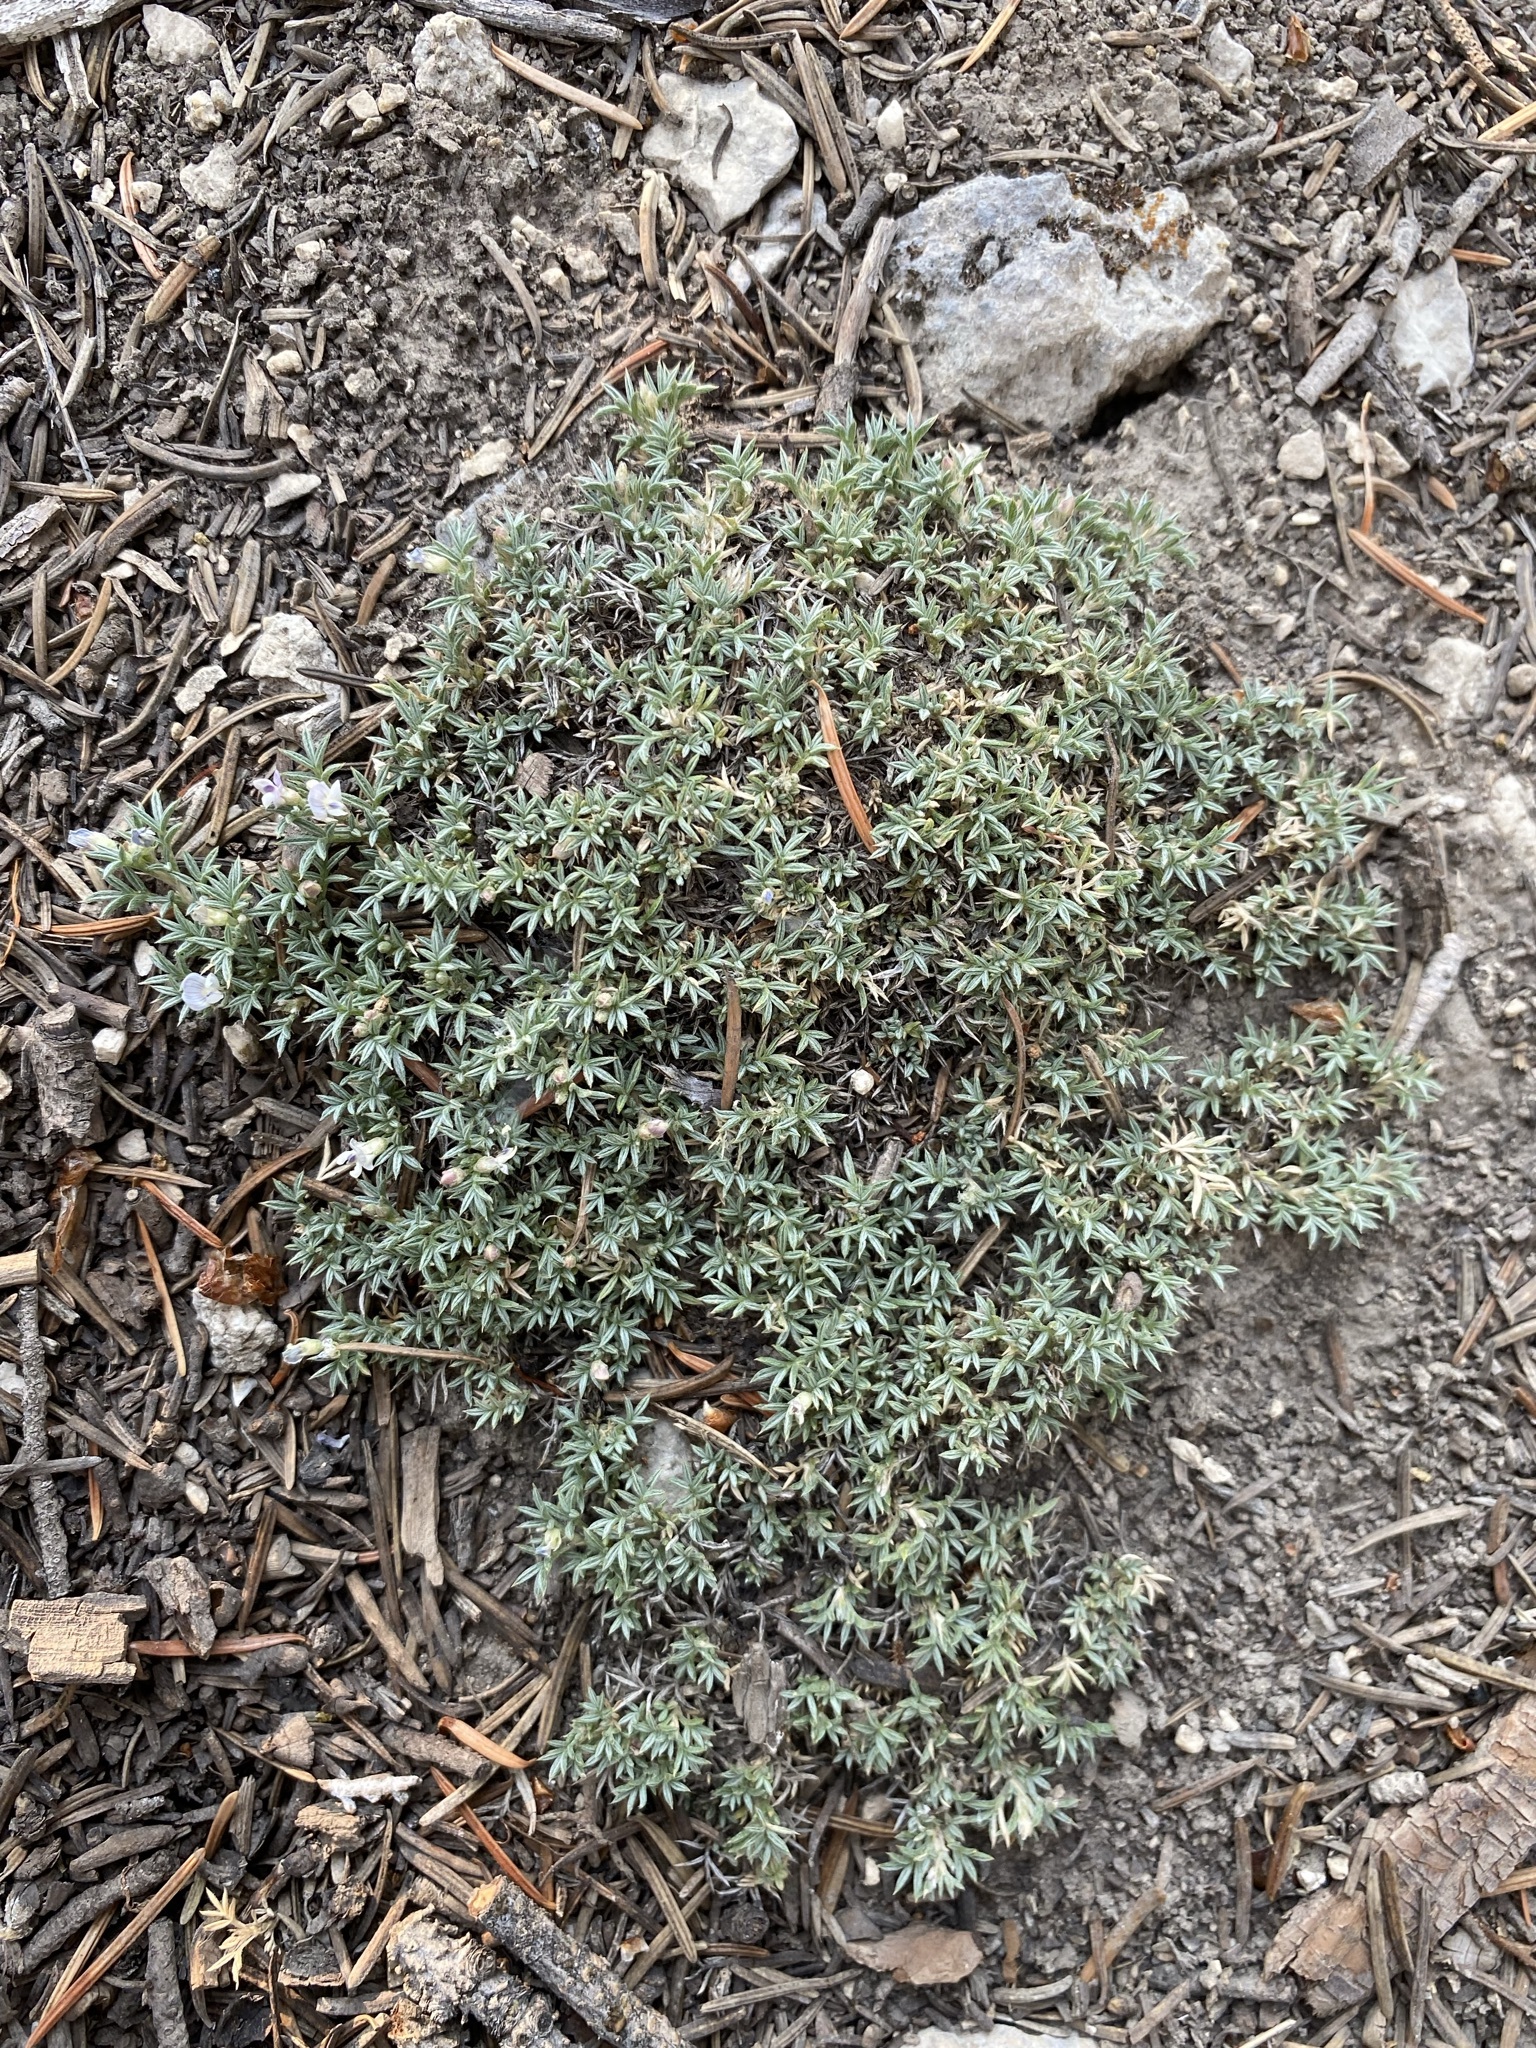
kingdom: Plantae
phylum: Tracheophyta
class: Magnoliopsida
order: Fabales
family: Fabaceae
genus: Astragalus
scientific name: Astragalus kentrophyta
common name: Prickly milk-vetch
